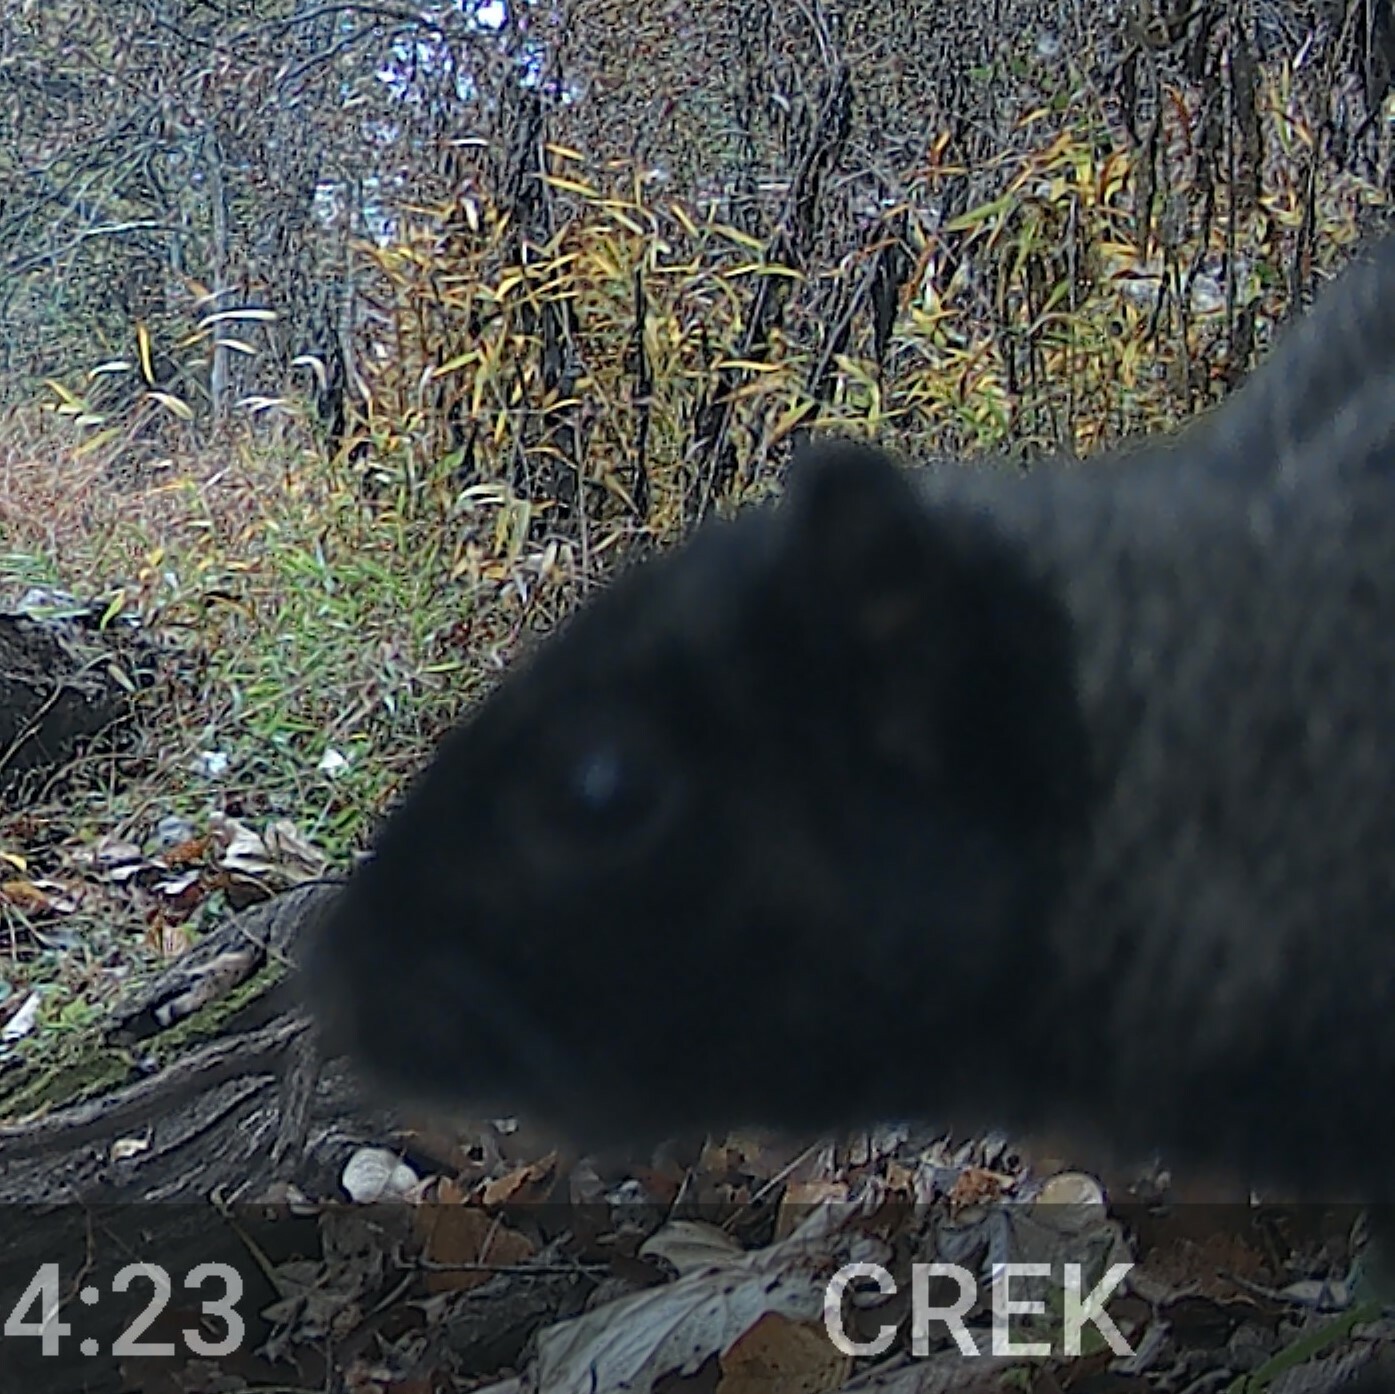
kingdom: Animalia
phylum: Chordata
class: Mammalia
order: Rodentia
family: Sciuridae
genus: Sciurus
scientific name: Sciurus carolinensis
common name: Eastern gray squirrel
